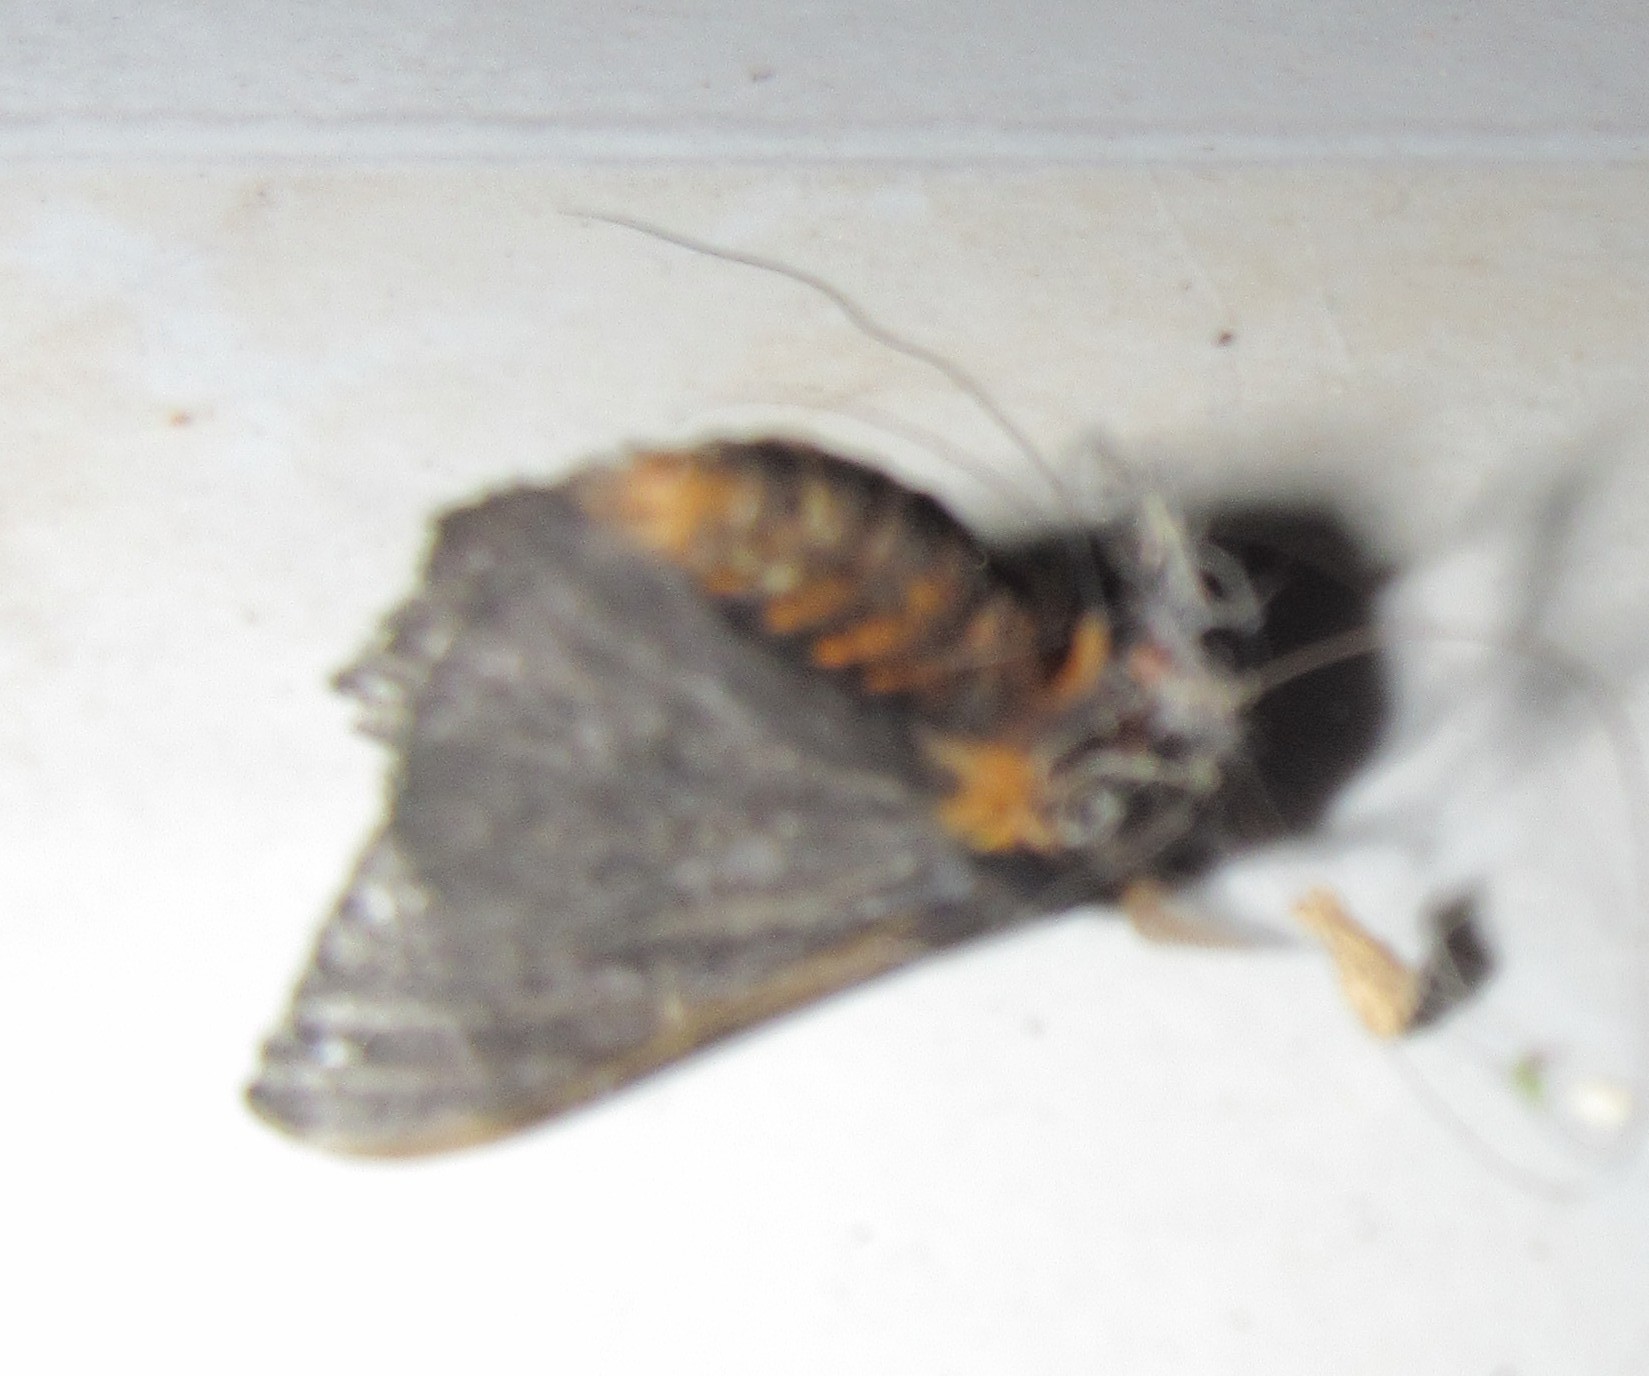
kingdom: Animalia
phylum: Arthropoda
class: Insecta
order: Lepidoptera
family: Saturniidae
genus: Hylesia
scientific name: Hylesia vindex
